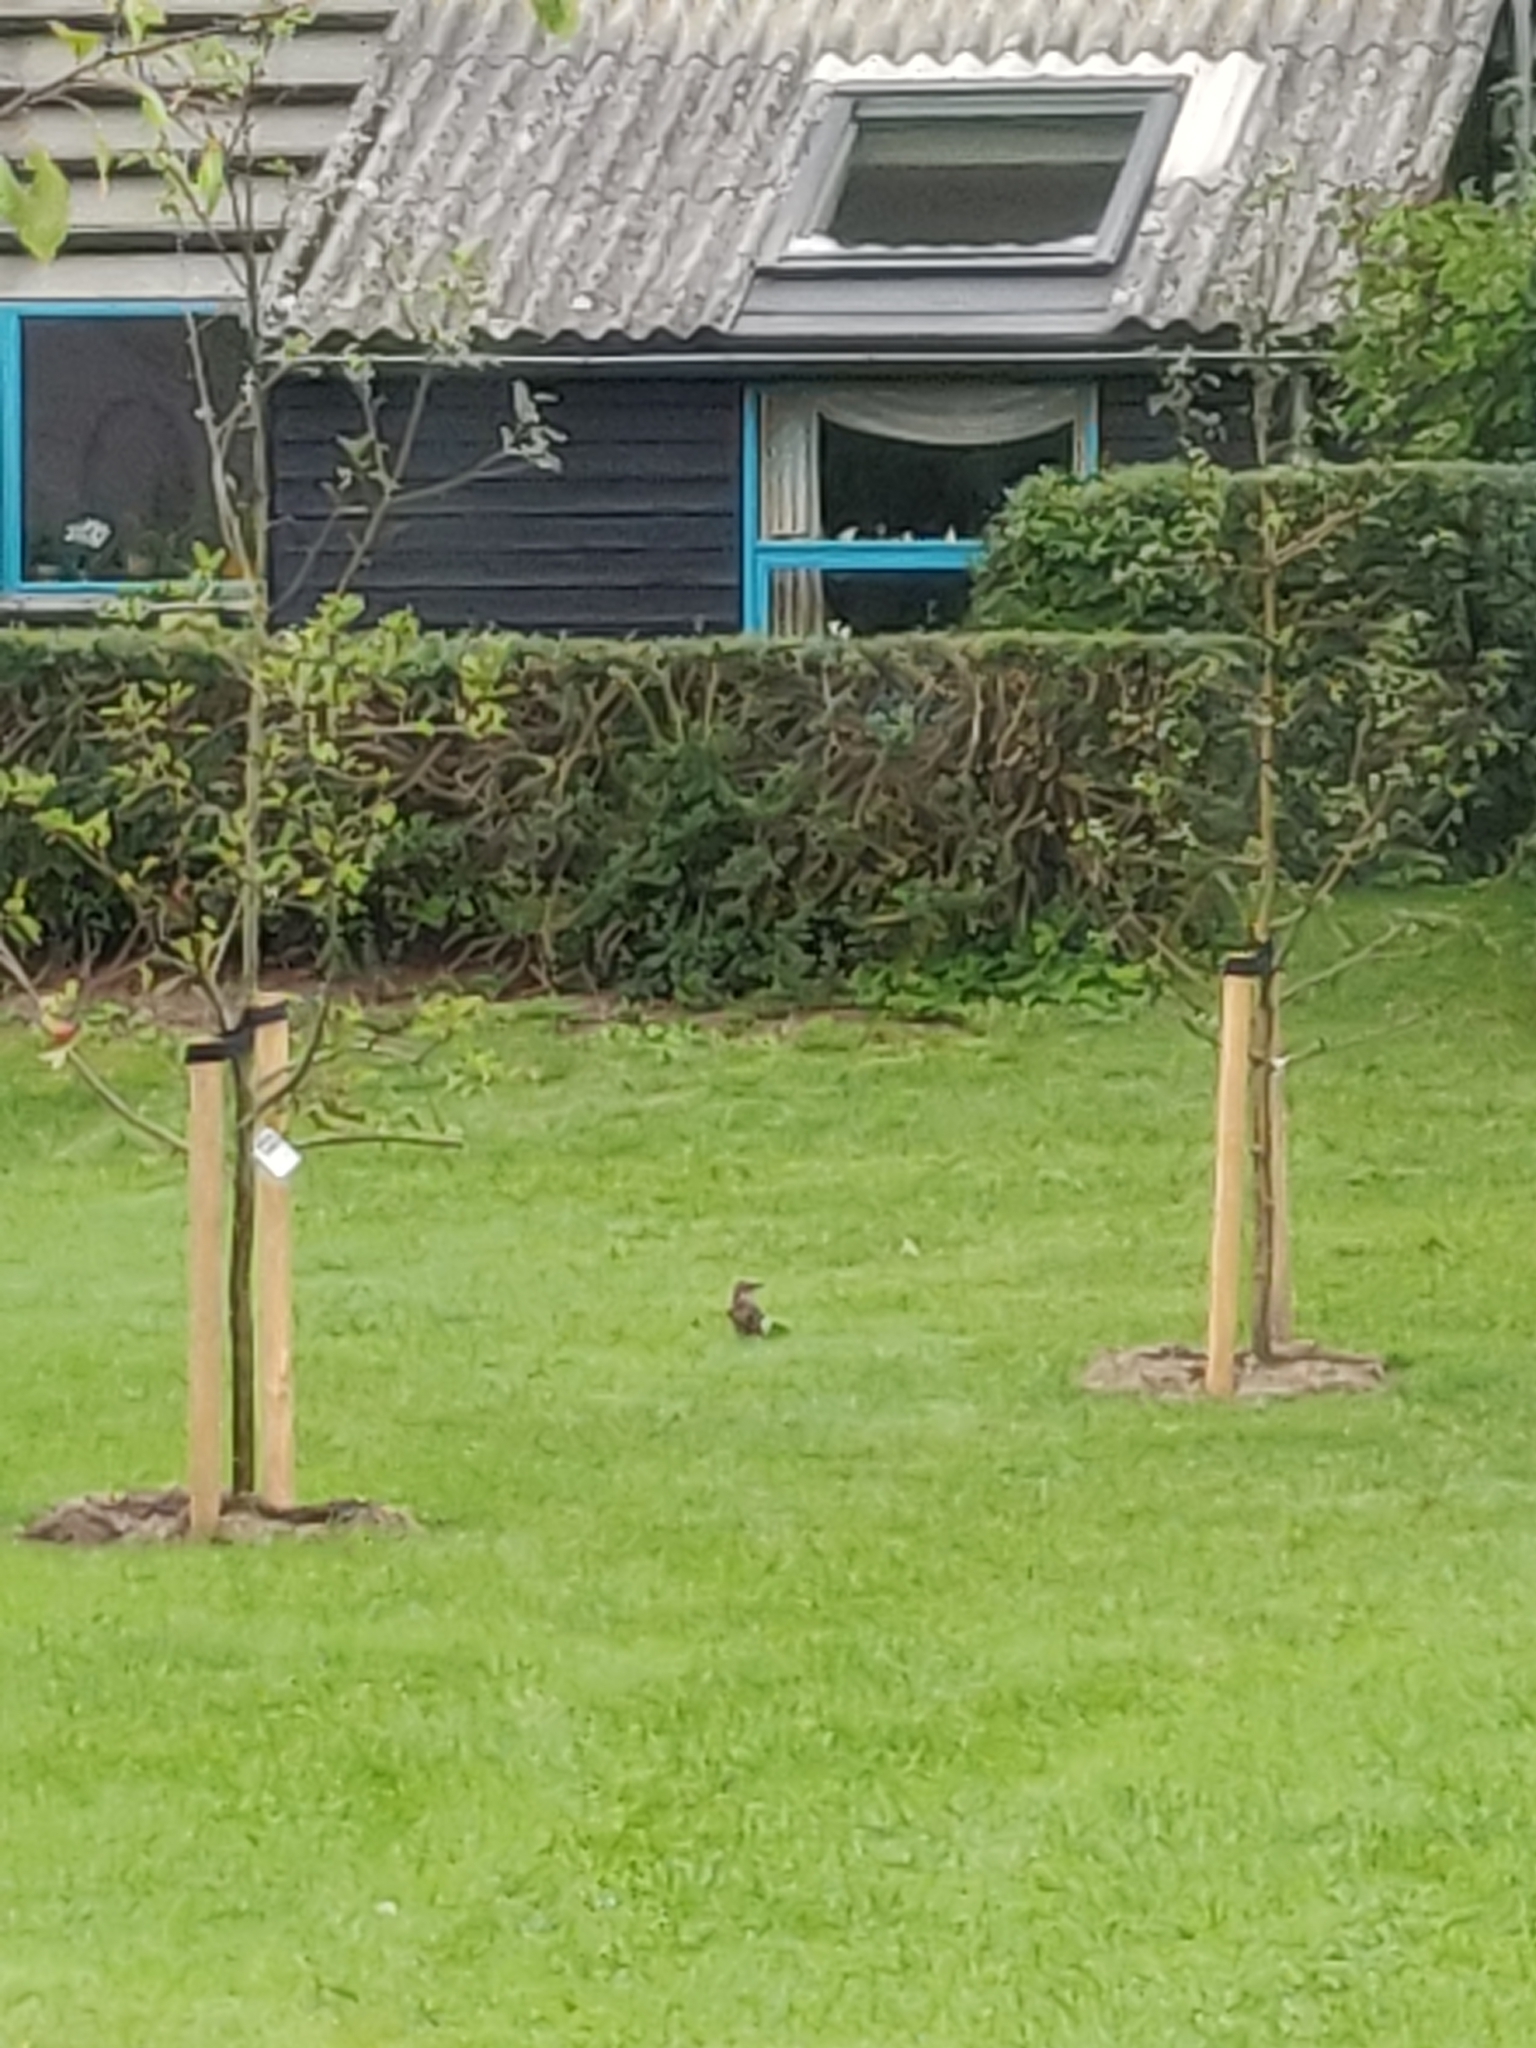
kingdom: Animalia
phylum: Chordata
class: Aves
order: Passeriformes
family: Corvidae
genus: Garrulus
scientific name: Garrulus glandarius
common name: Eurasian jay
